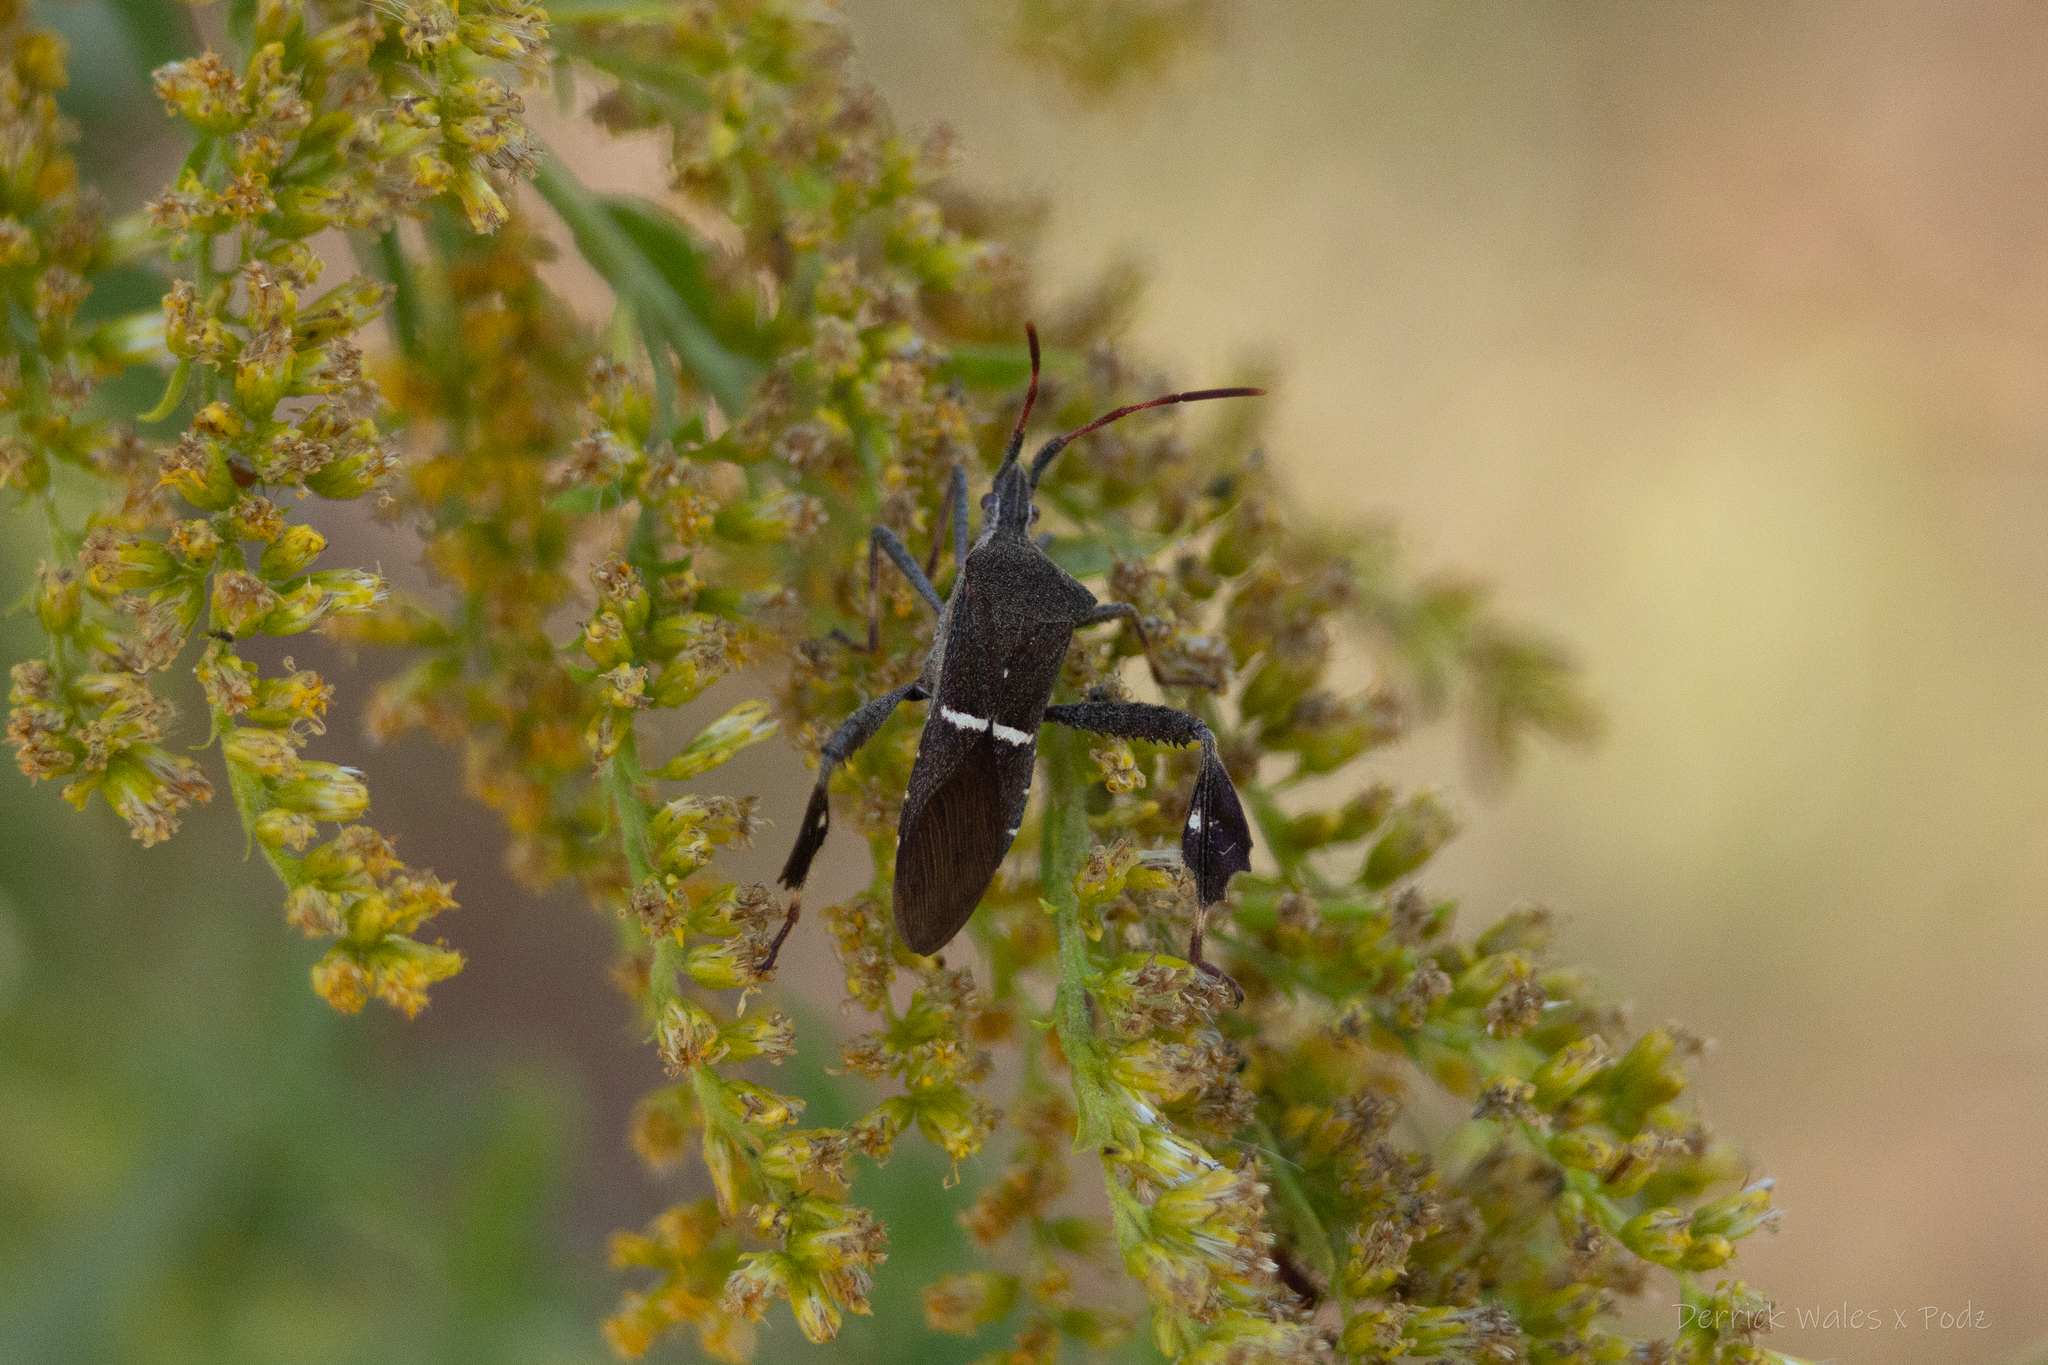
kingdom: Animalia
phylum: Arthropoda
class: Insecta
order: Hemiptera
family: Coreidae
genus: Leptoglossus
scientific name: Leptoglossus phyllopus
